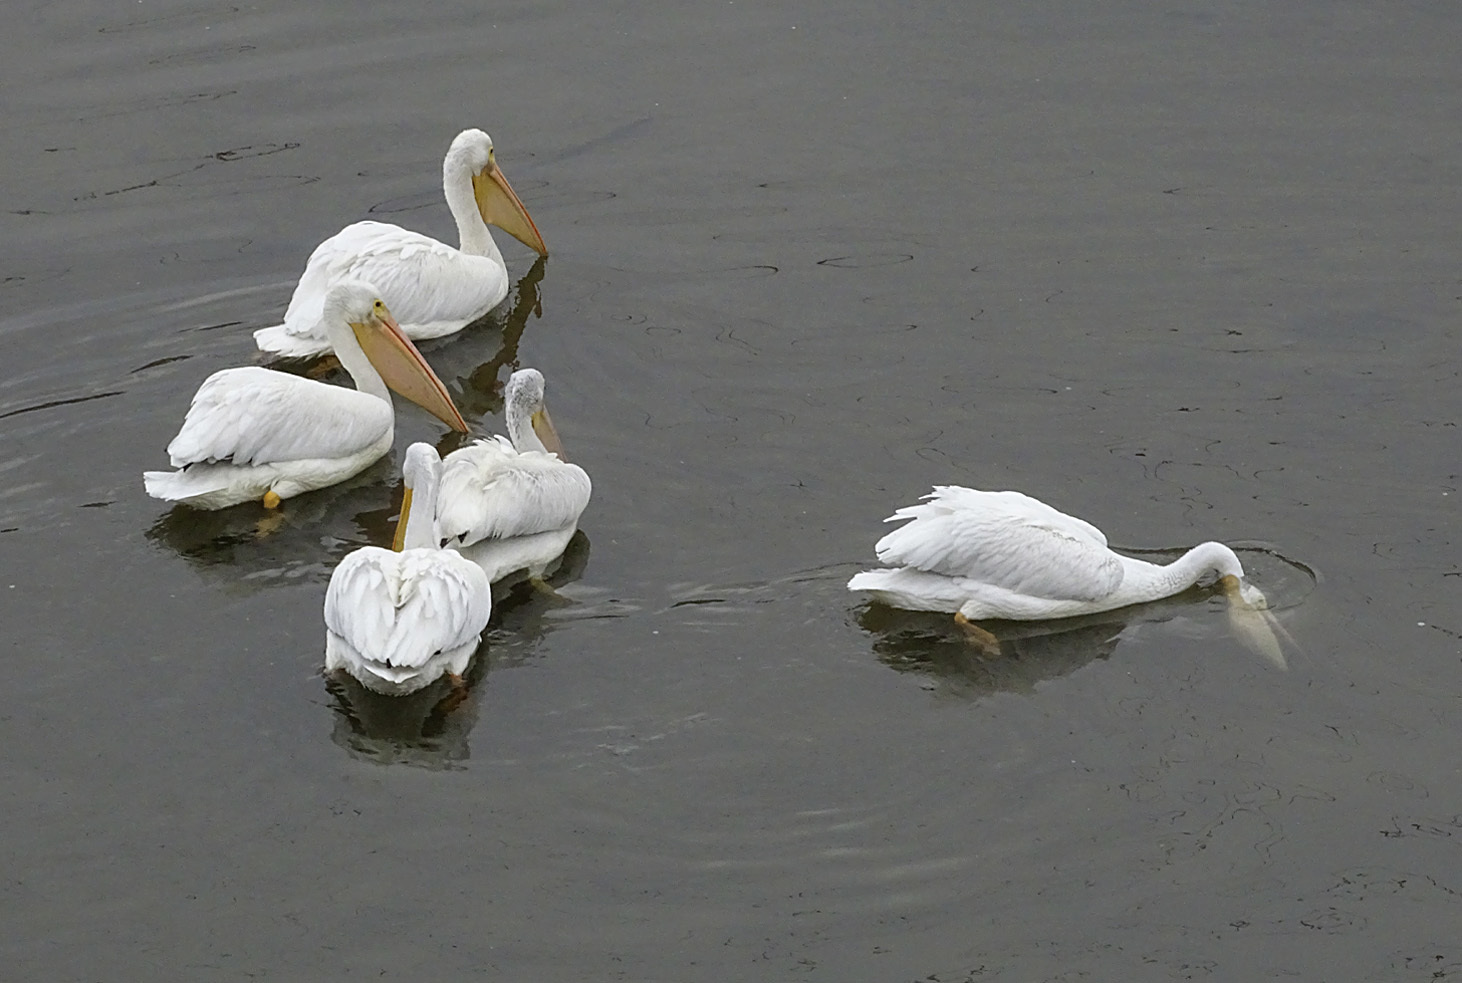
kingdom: Animalia
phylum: Chordata
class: Aves
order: Pelecaniformes
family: Pelecanidae
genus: Pelecanus
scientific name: Pelecanus erythrorhynchos
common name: American white pelican
